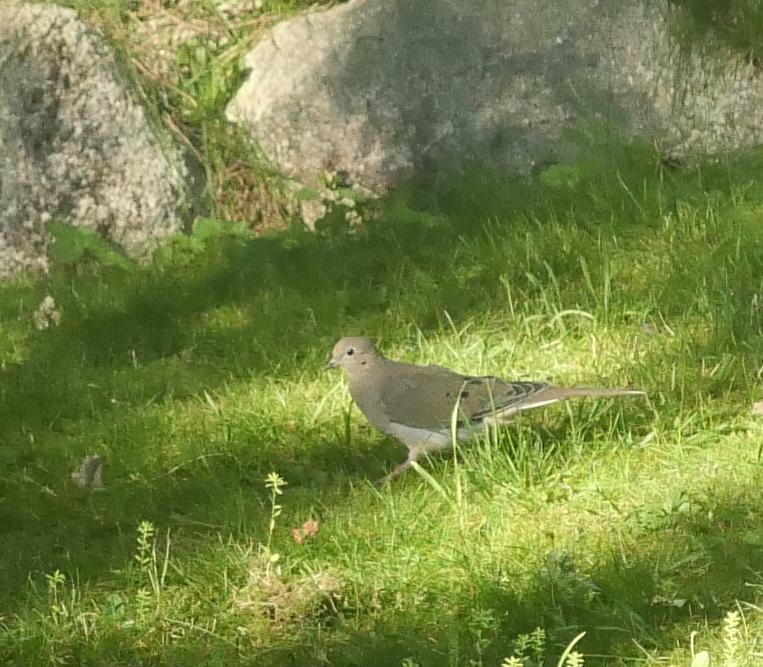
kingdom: Animalia
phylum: Chordata
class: Aves
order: Columbiformes
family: Columbidae
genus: Zenaida
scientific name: Zenaida macroura
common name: Mourning dove
